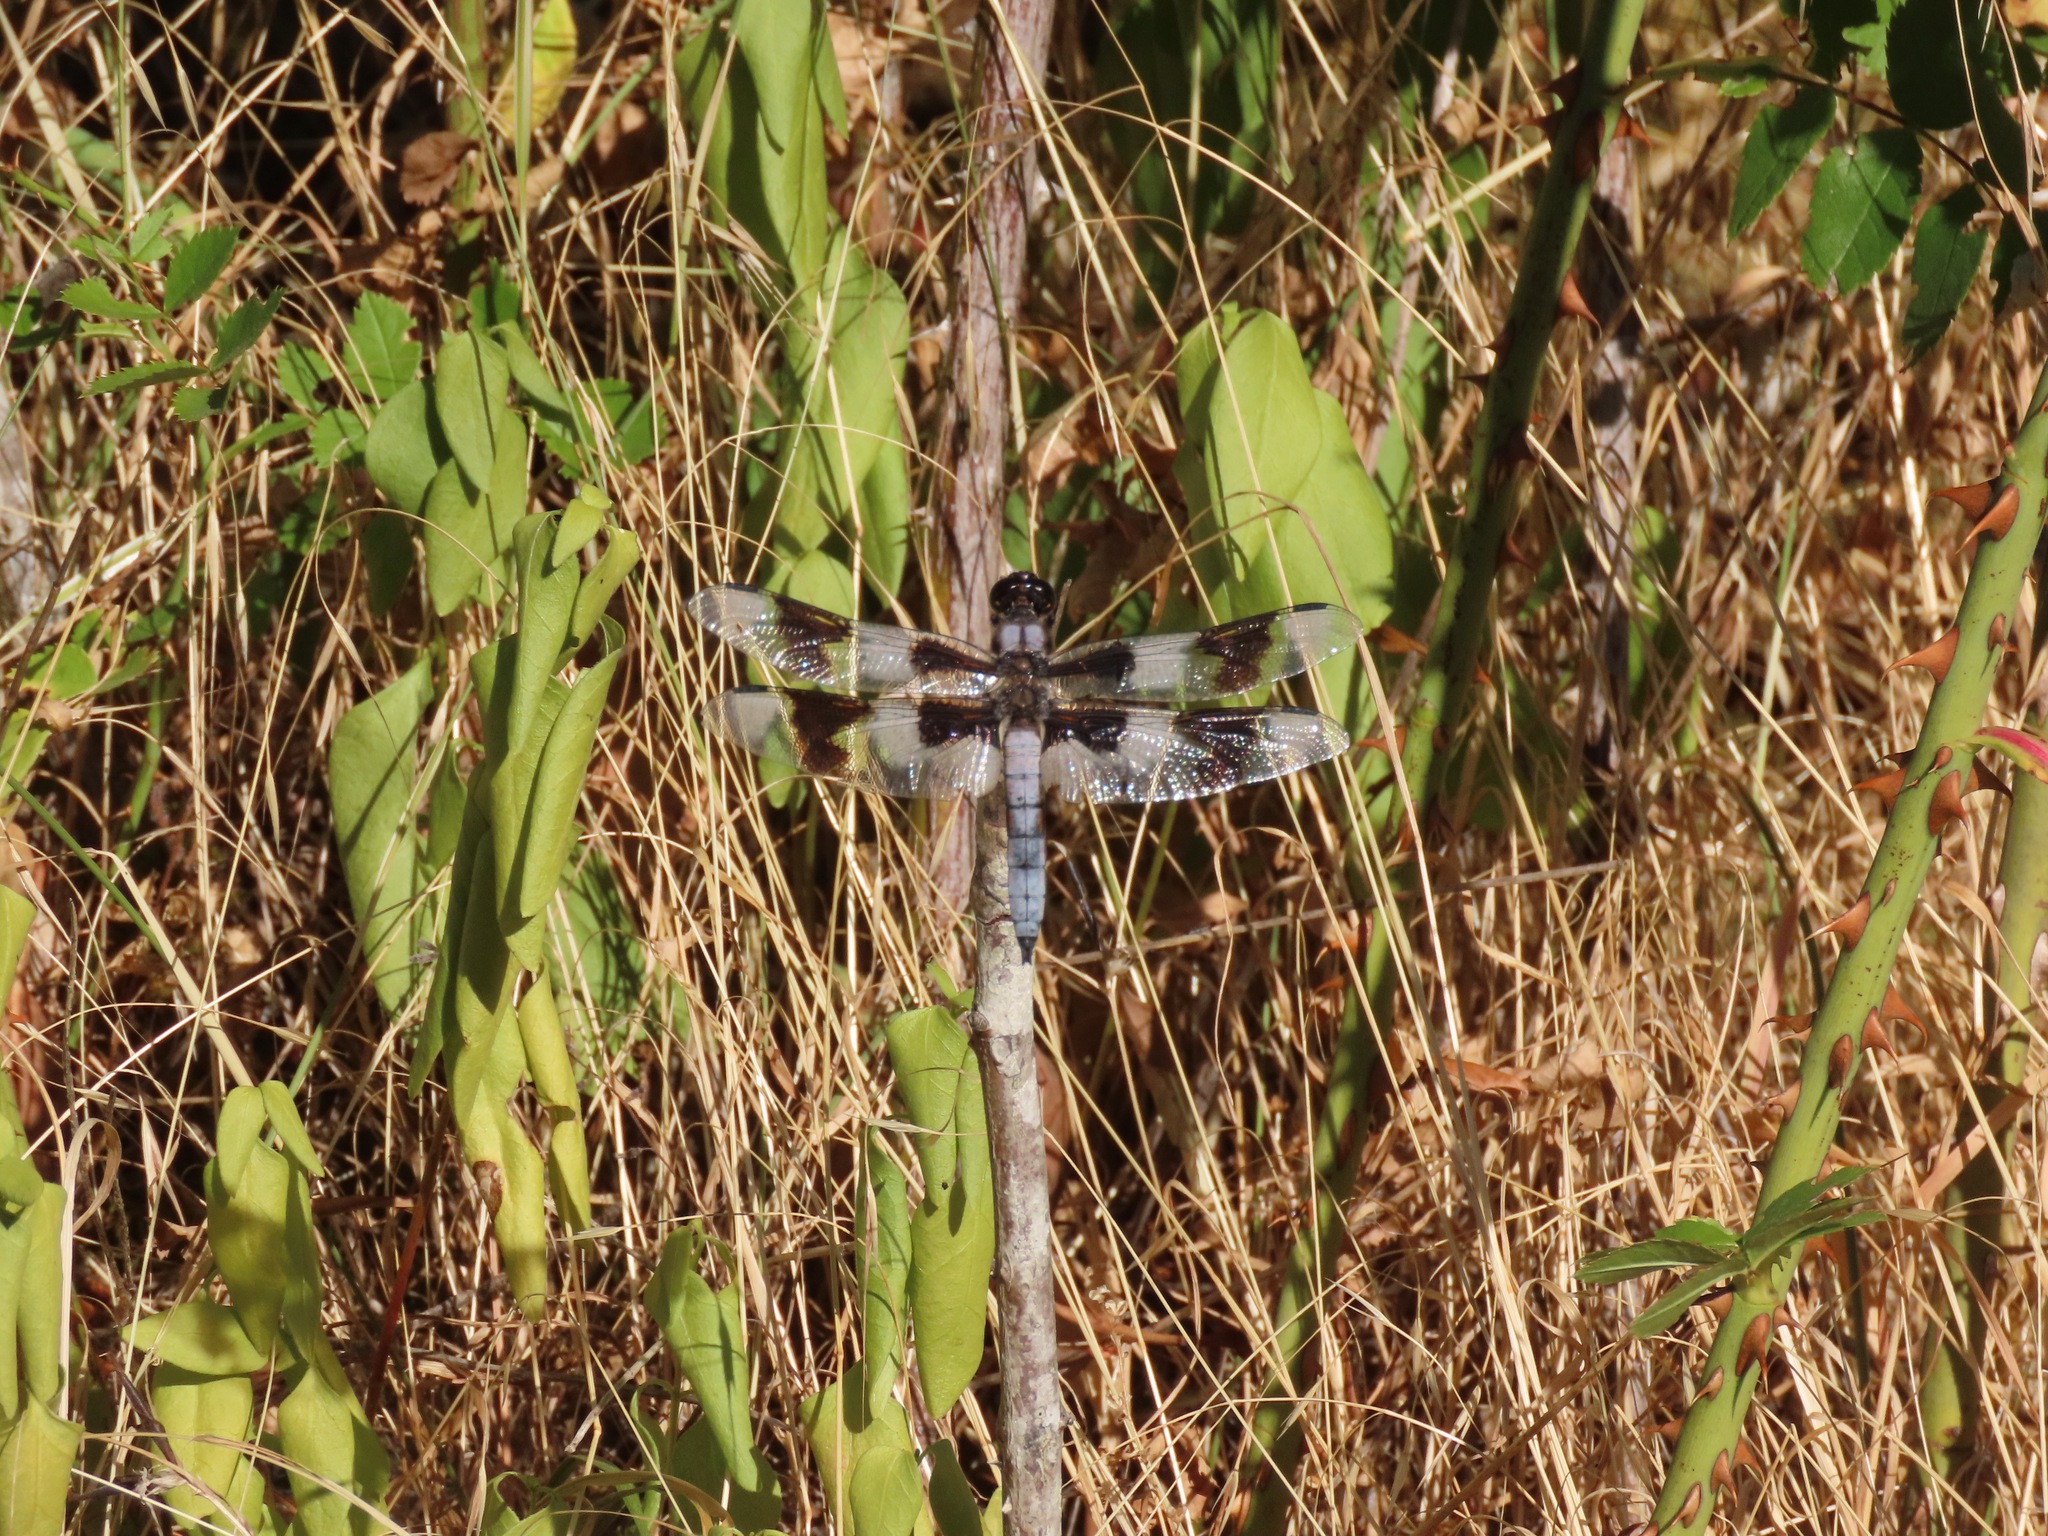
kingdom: Animalia
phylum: Arthropoda
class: Insecta
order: Odonata
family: Libellulidae
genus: Libellula
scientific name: Libellula forensis
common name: Eight-spotted skimmer
